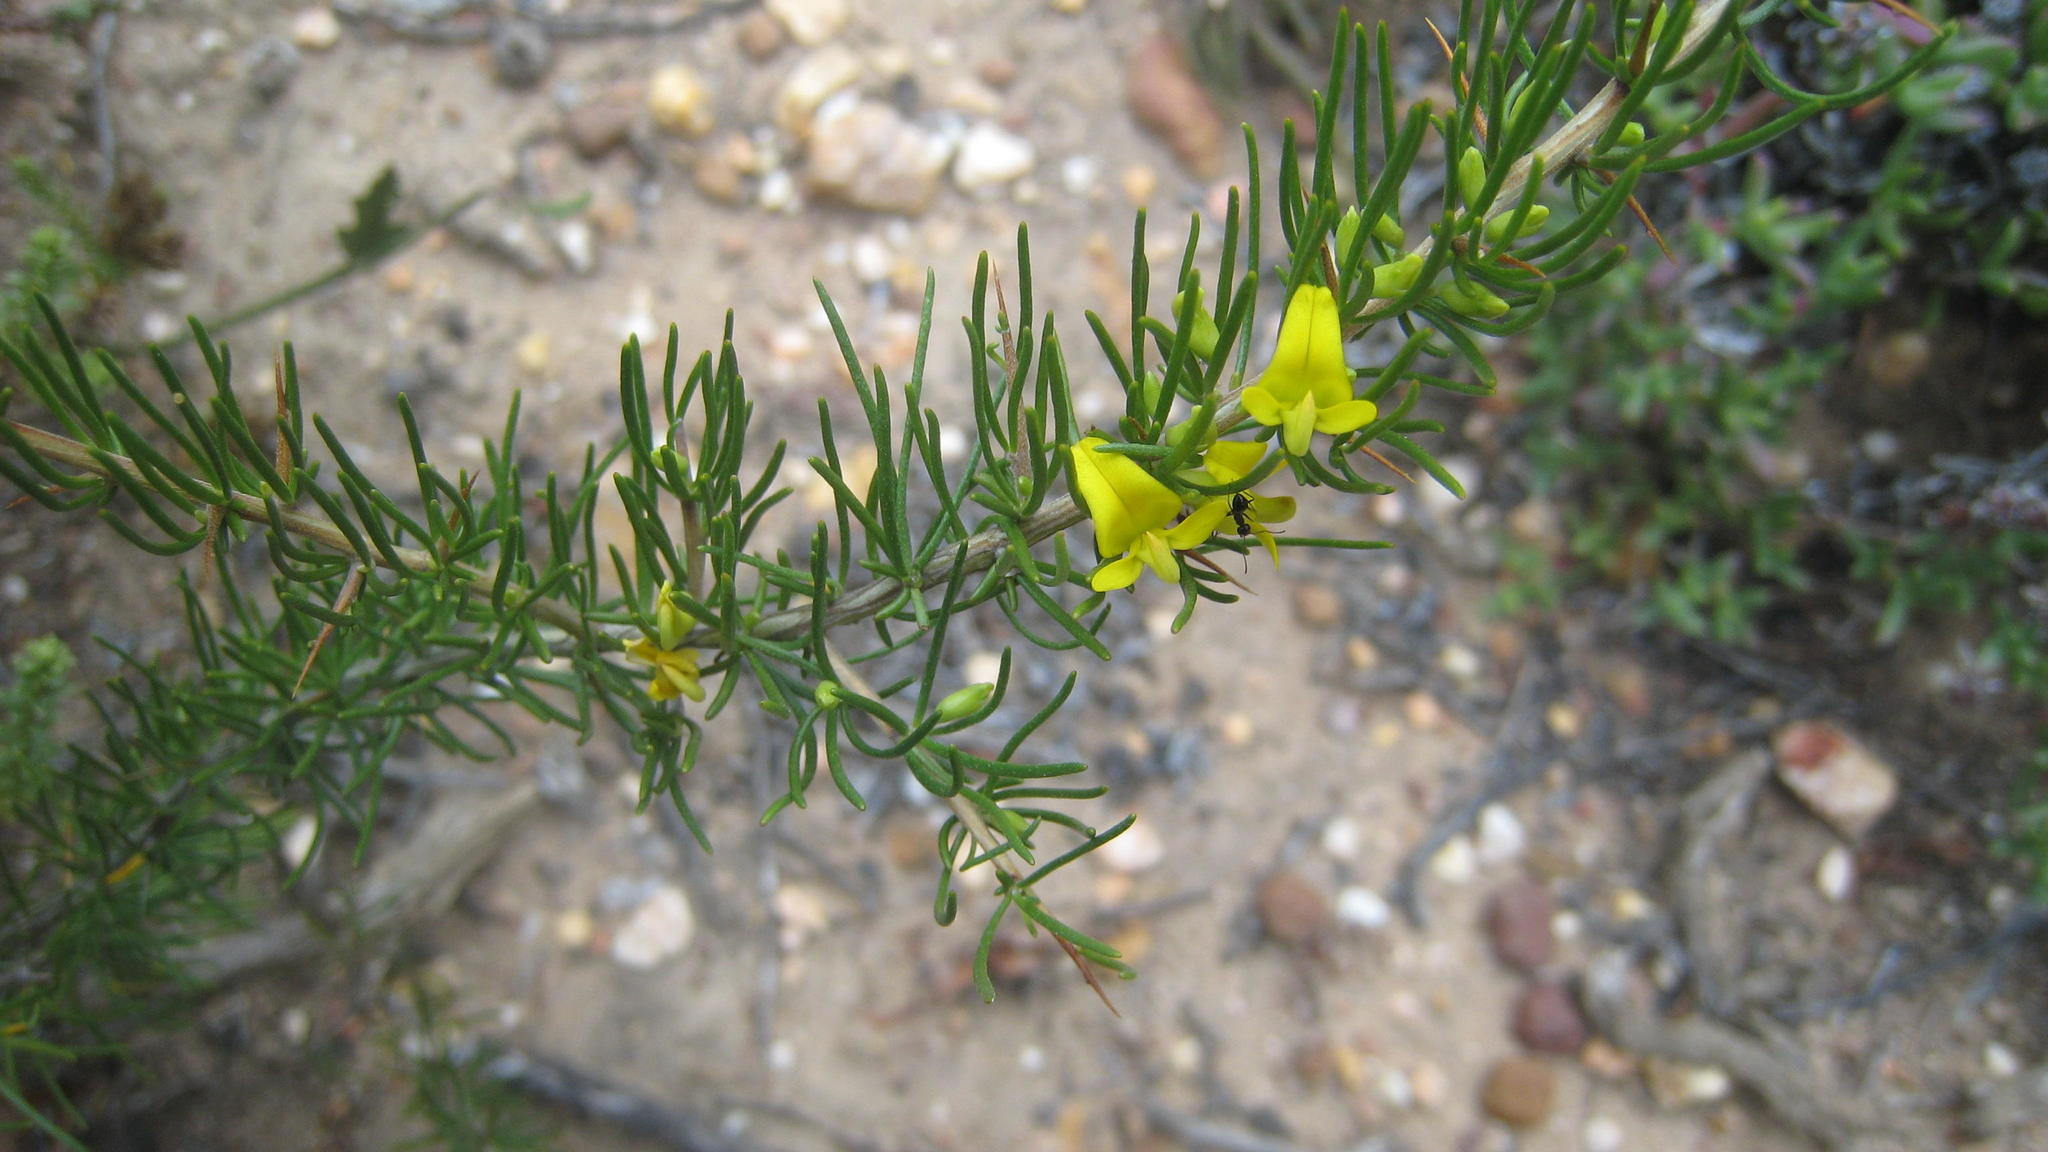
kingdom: Plantae
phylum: Tracheophyta
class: Magnoliopsida
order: Fabales
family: Fabaceae
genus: Aspalathus
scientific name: Aspalathus spinosa
